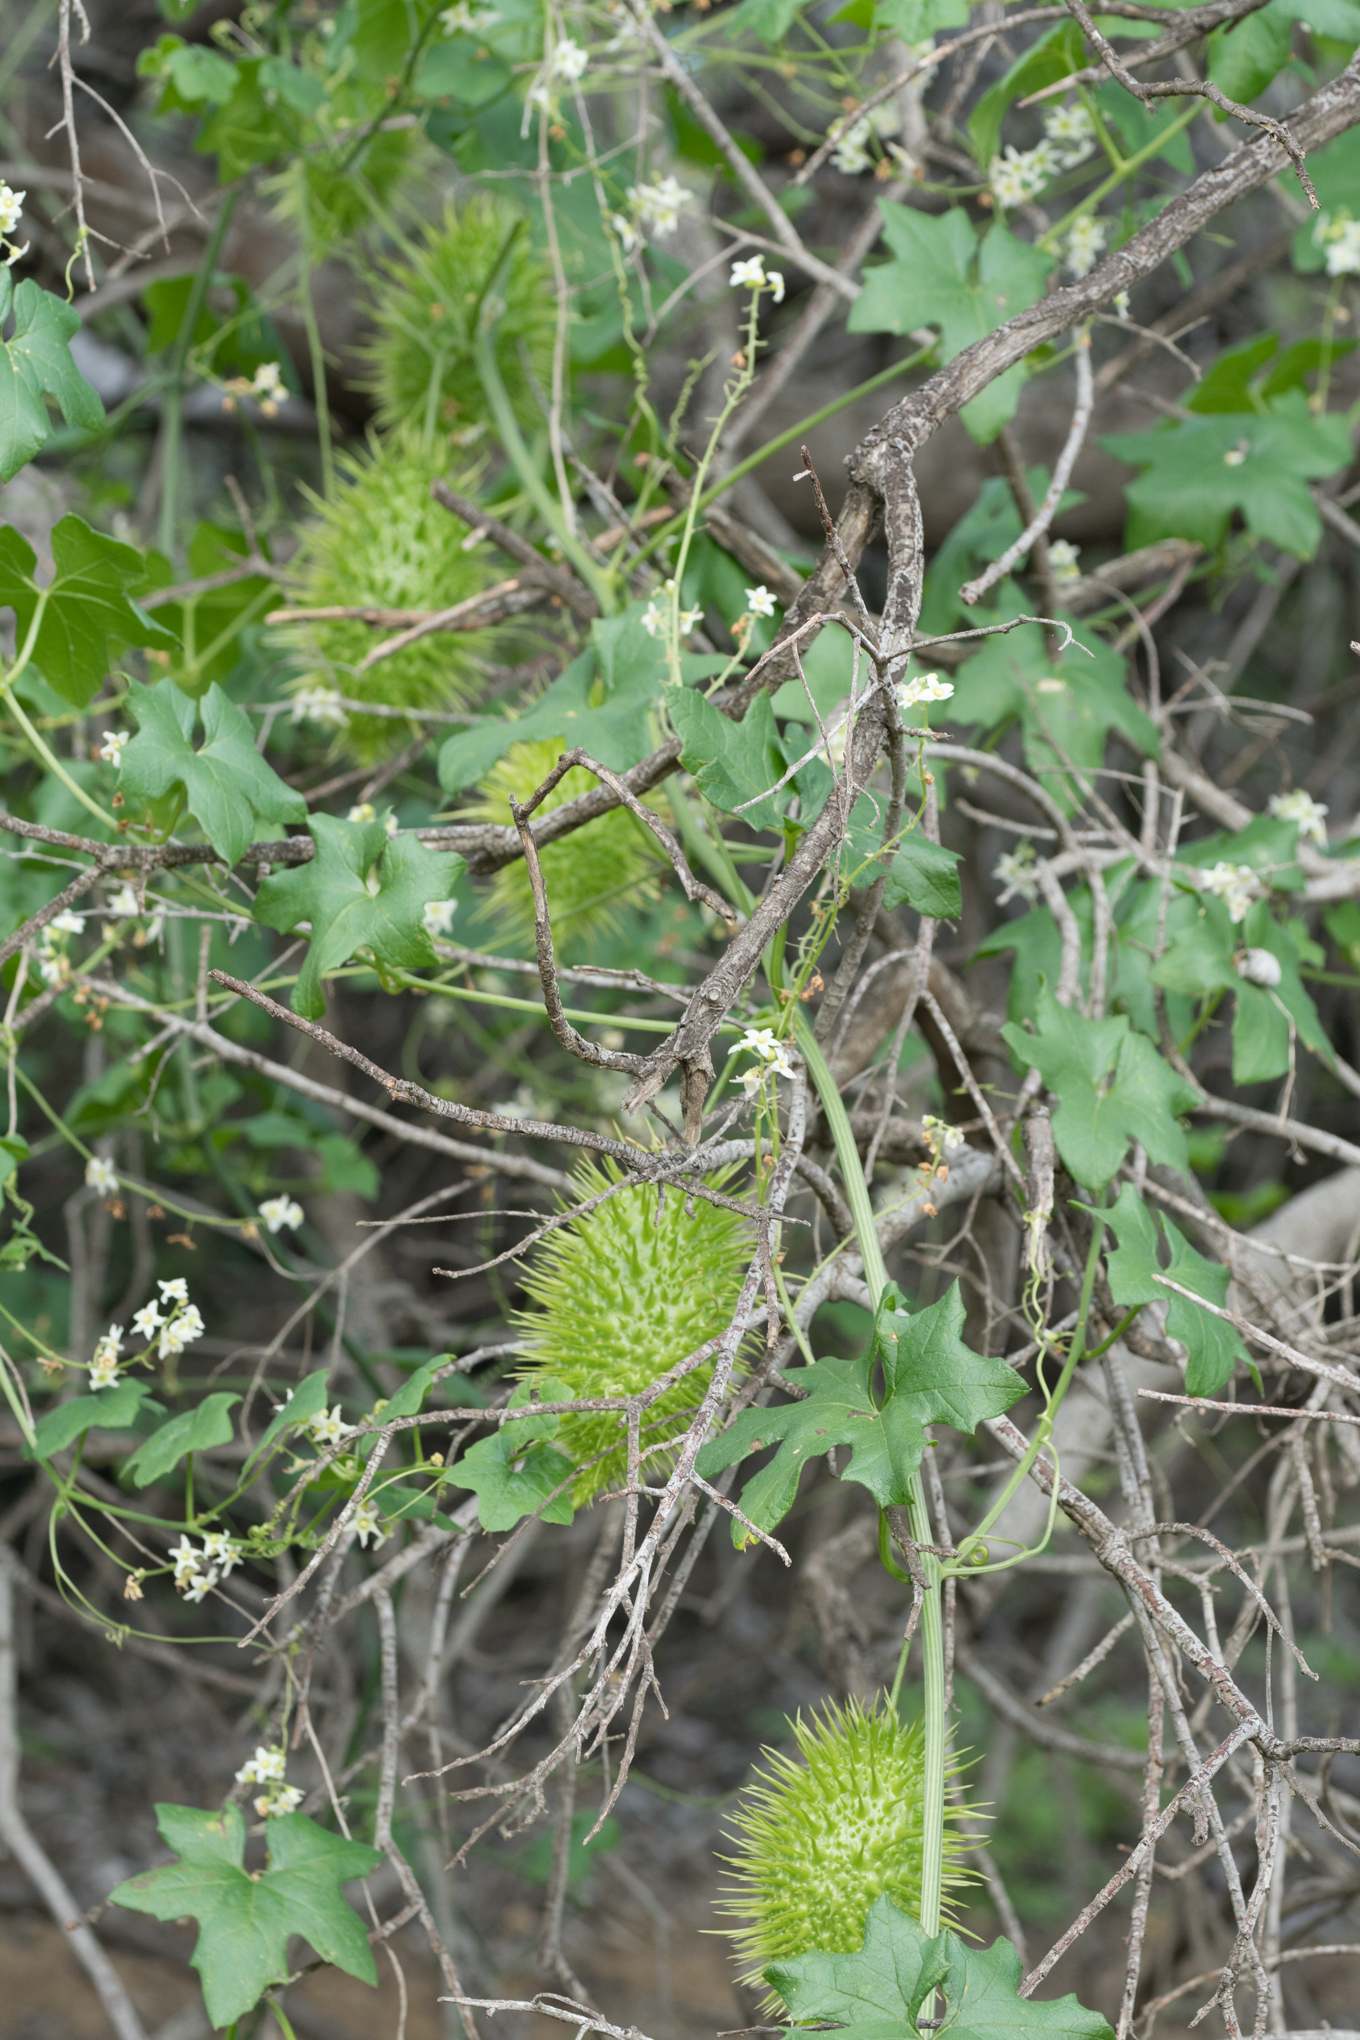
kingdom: Plantae
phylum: Tracheophyta
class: Magnoliopsida
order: Cucurbitales
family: Cucurbitaceae
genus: Marah
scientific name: Marah macrocarpa
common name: Cucamonga manroot
